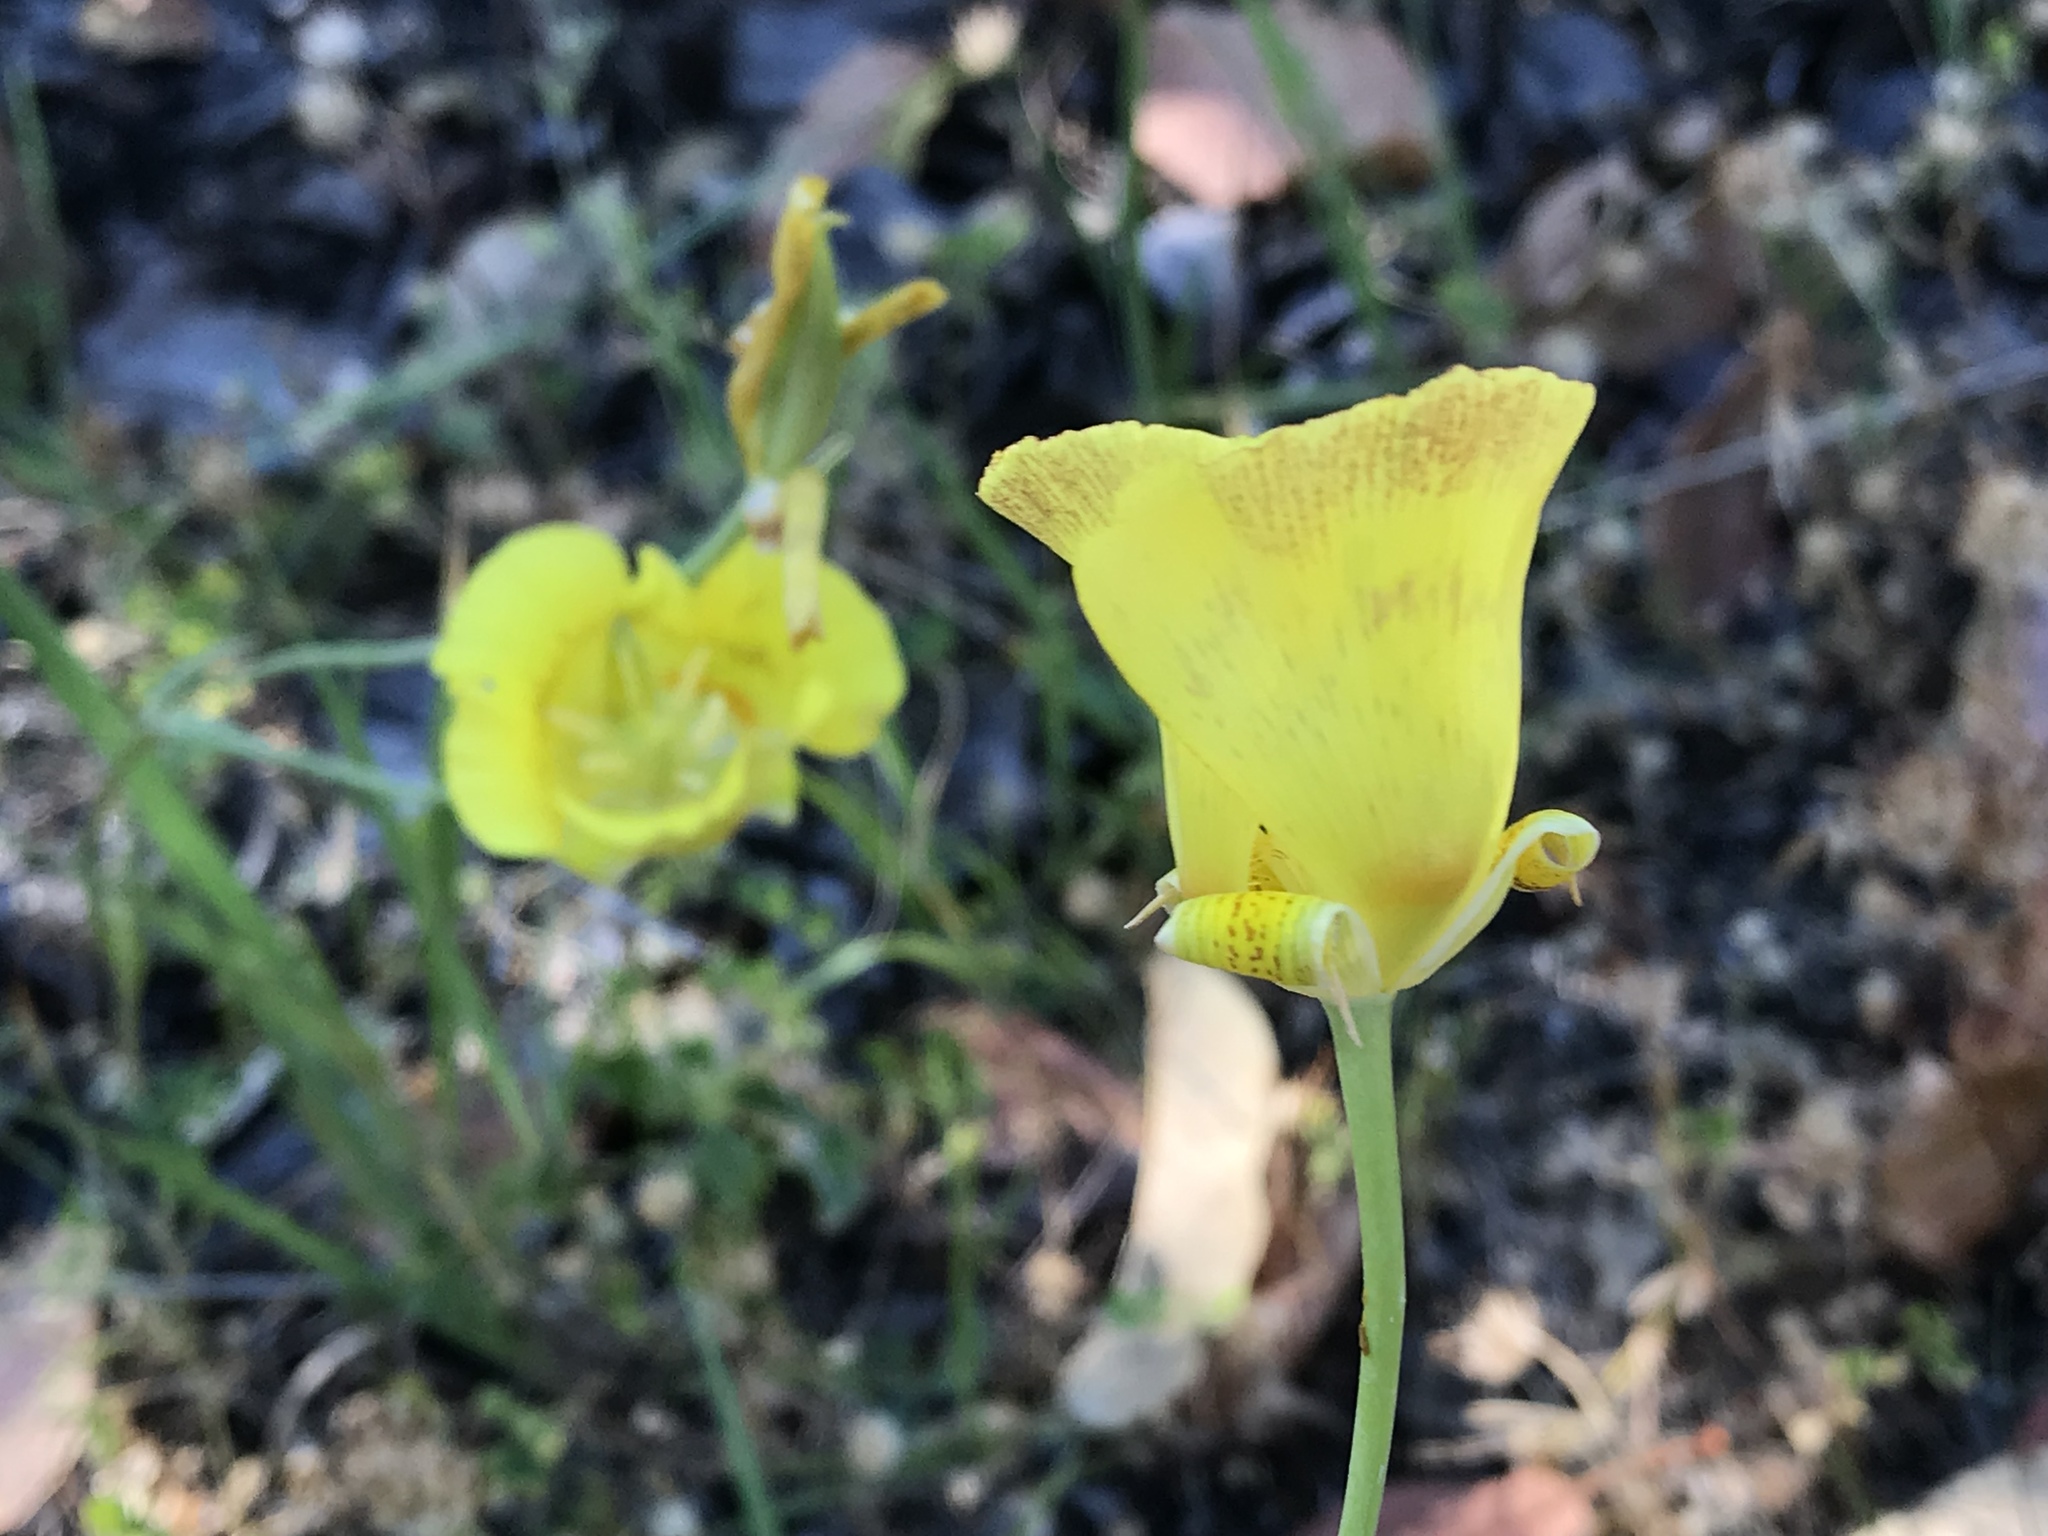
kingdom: Plantae
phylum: Tracheophyta
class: Liliopsida
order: Liliales
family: Liliaceae
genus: Calochortus
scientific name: Calochortus luteus
